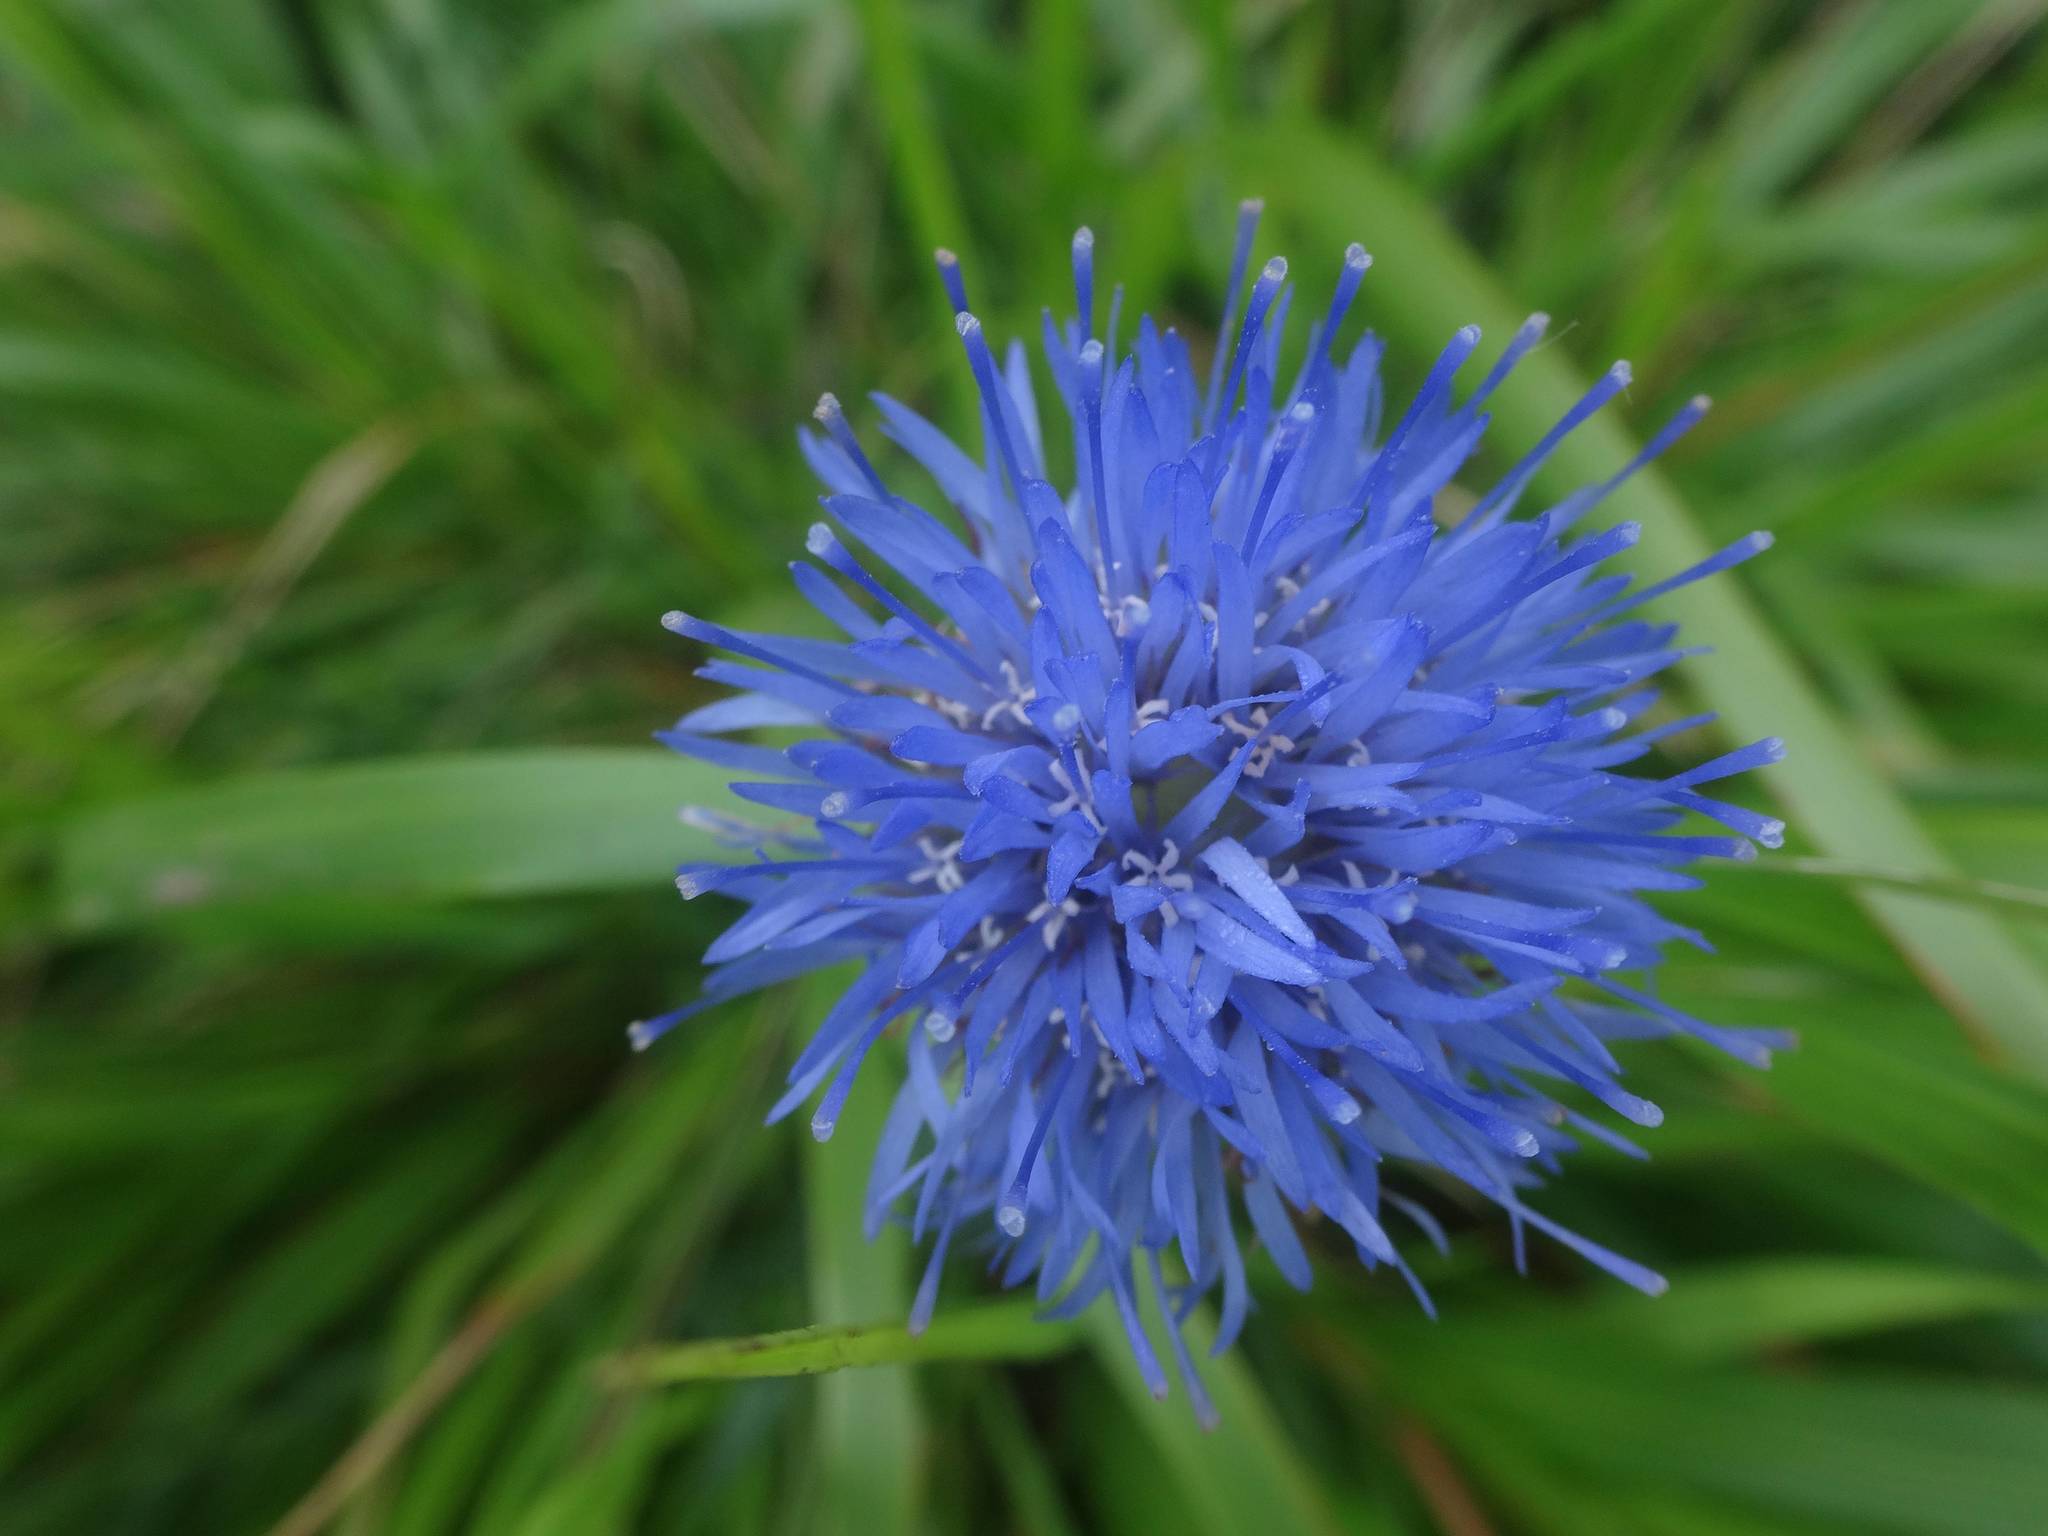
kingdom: Plantae
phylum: Tracheophyta
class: Magnoliopsida
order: Asterales
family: Campanulaceae
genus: Jasione
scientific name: Jasione montana
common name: Sheep's-bit
